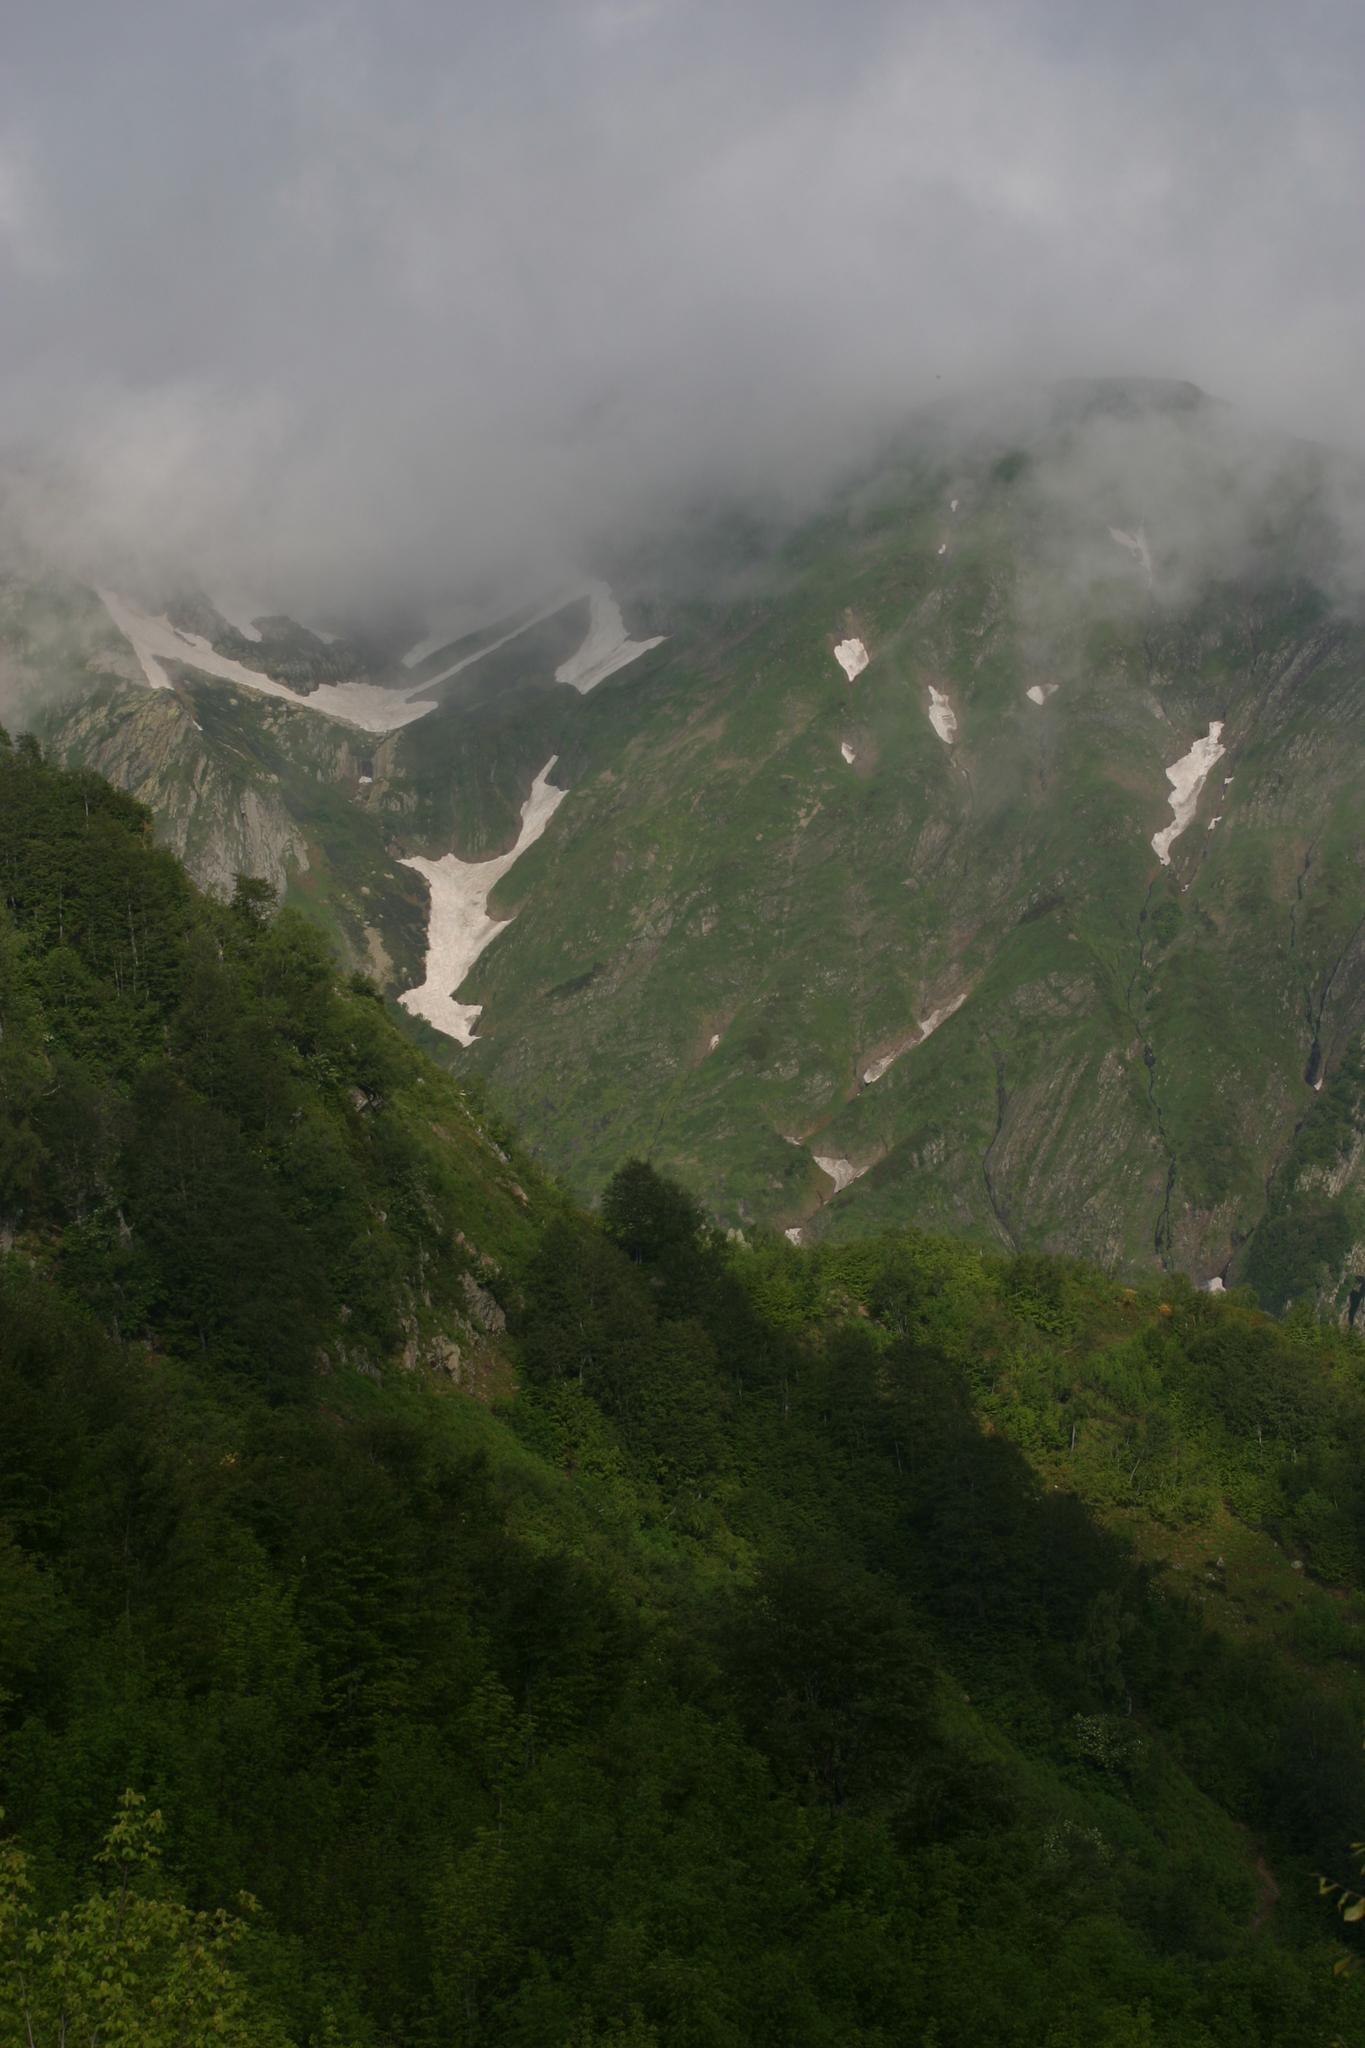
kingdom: Plantae
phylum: Tracheophyta
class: Magnoliopsida
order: Fagales
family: Fagaceae
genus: Fagus
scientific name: Fagus orientalis
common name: Oriental beech
